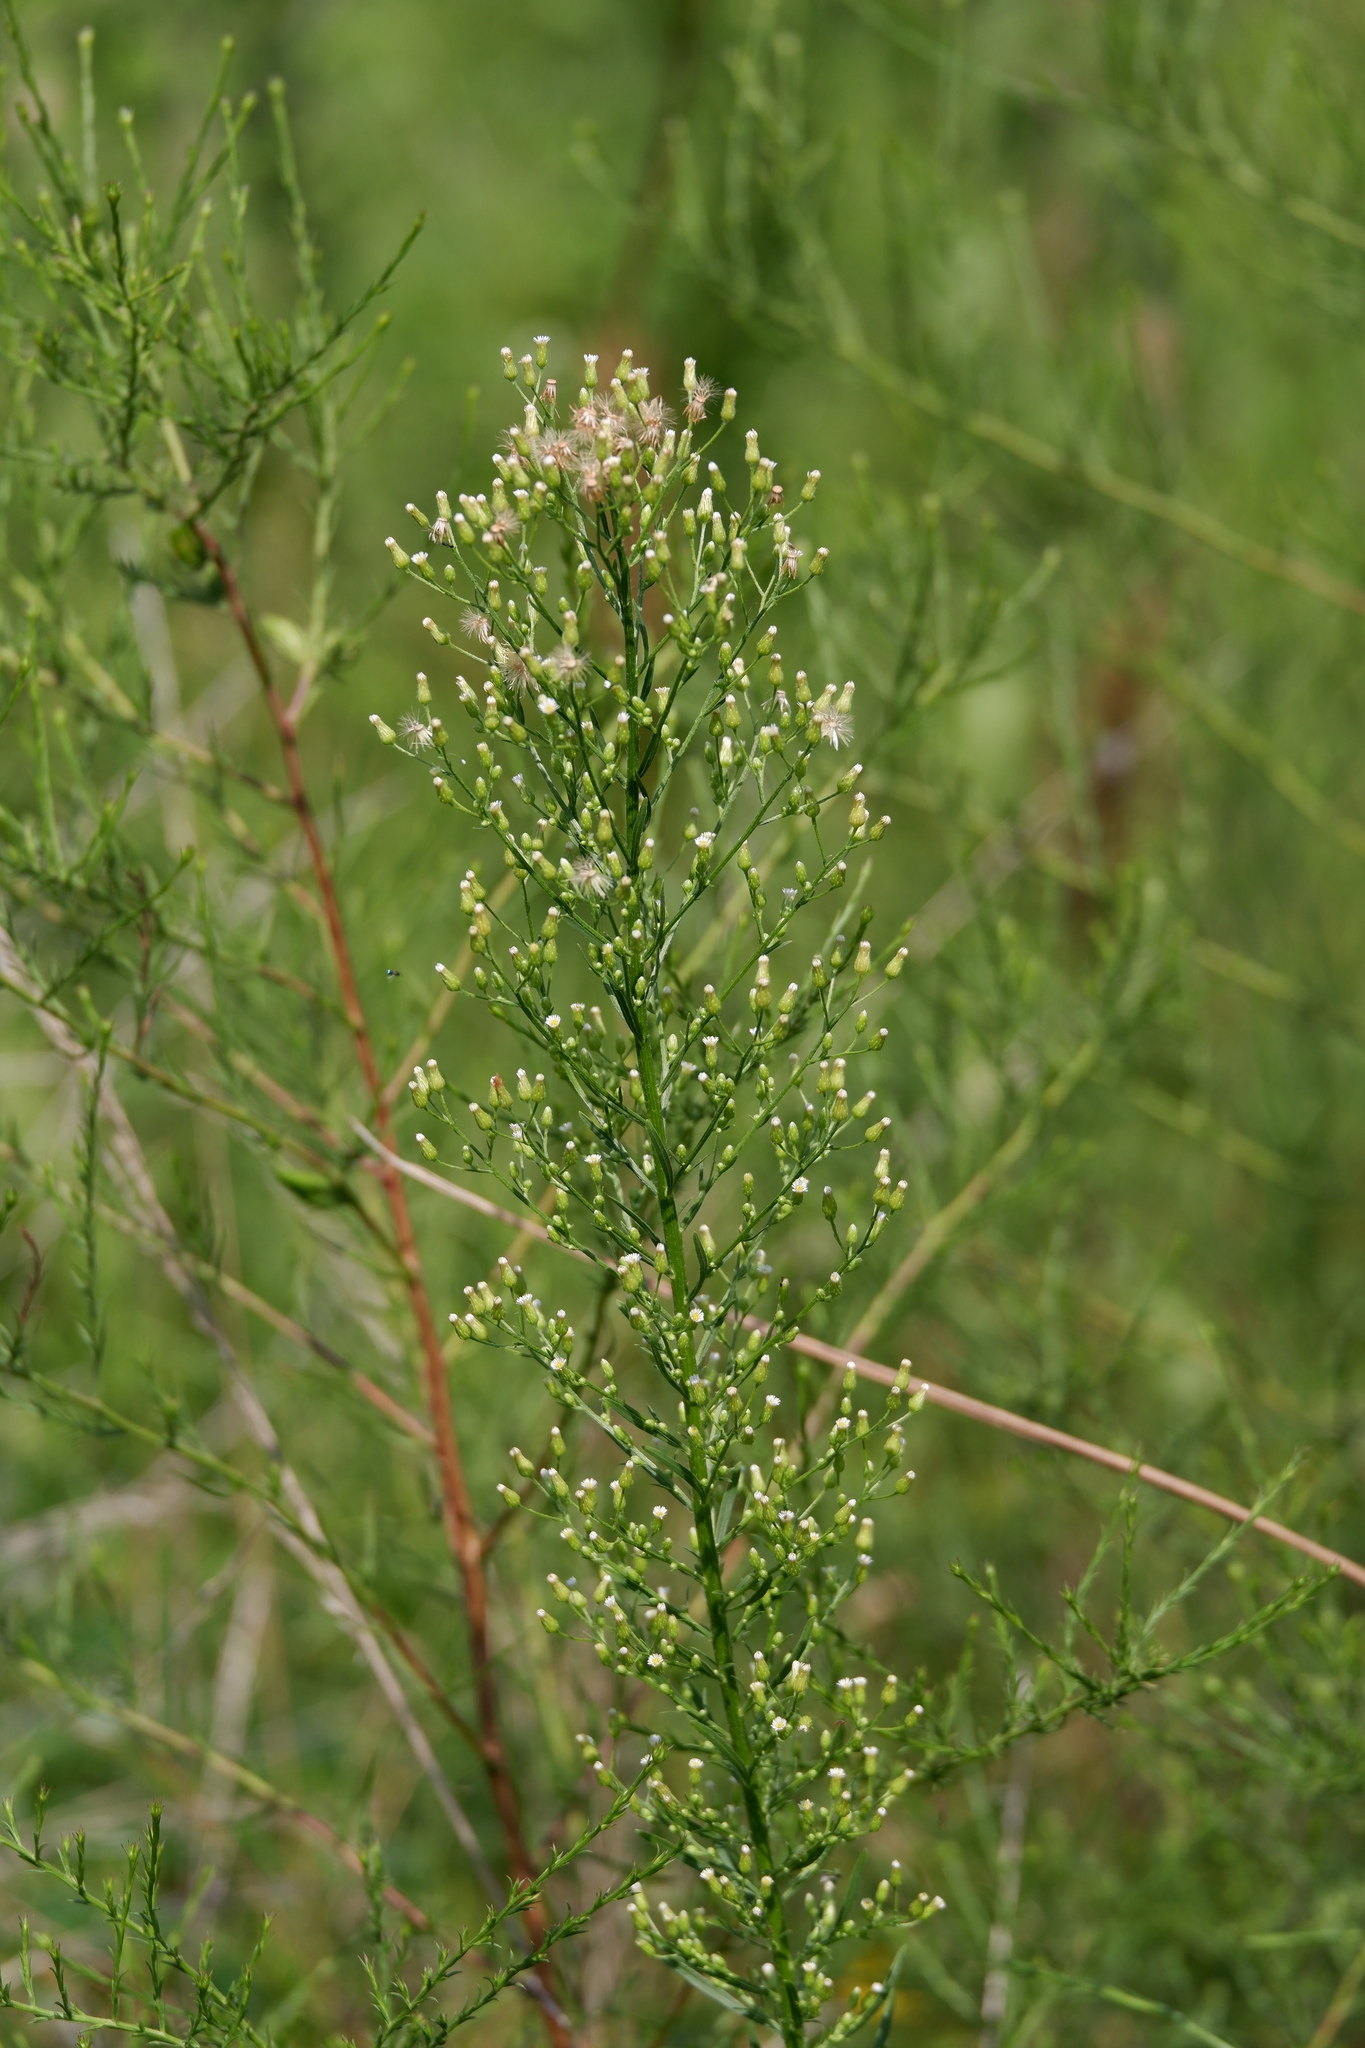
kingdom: Plantae
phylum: Tracheophyta
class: Magnoliopsida
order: Asterales
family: Asteraceae
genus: Erigeron
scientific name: Erigeron canadensis
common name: Canadian fleabane
